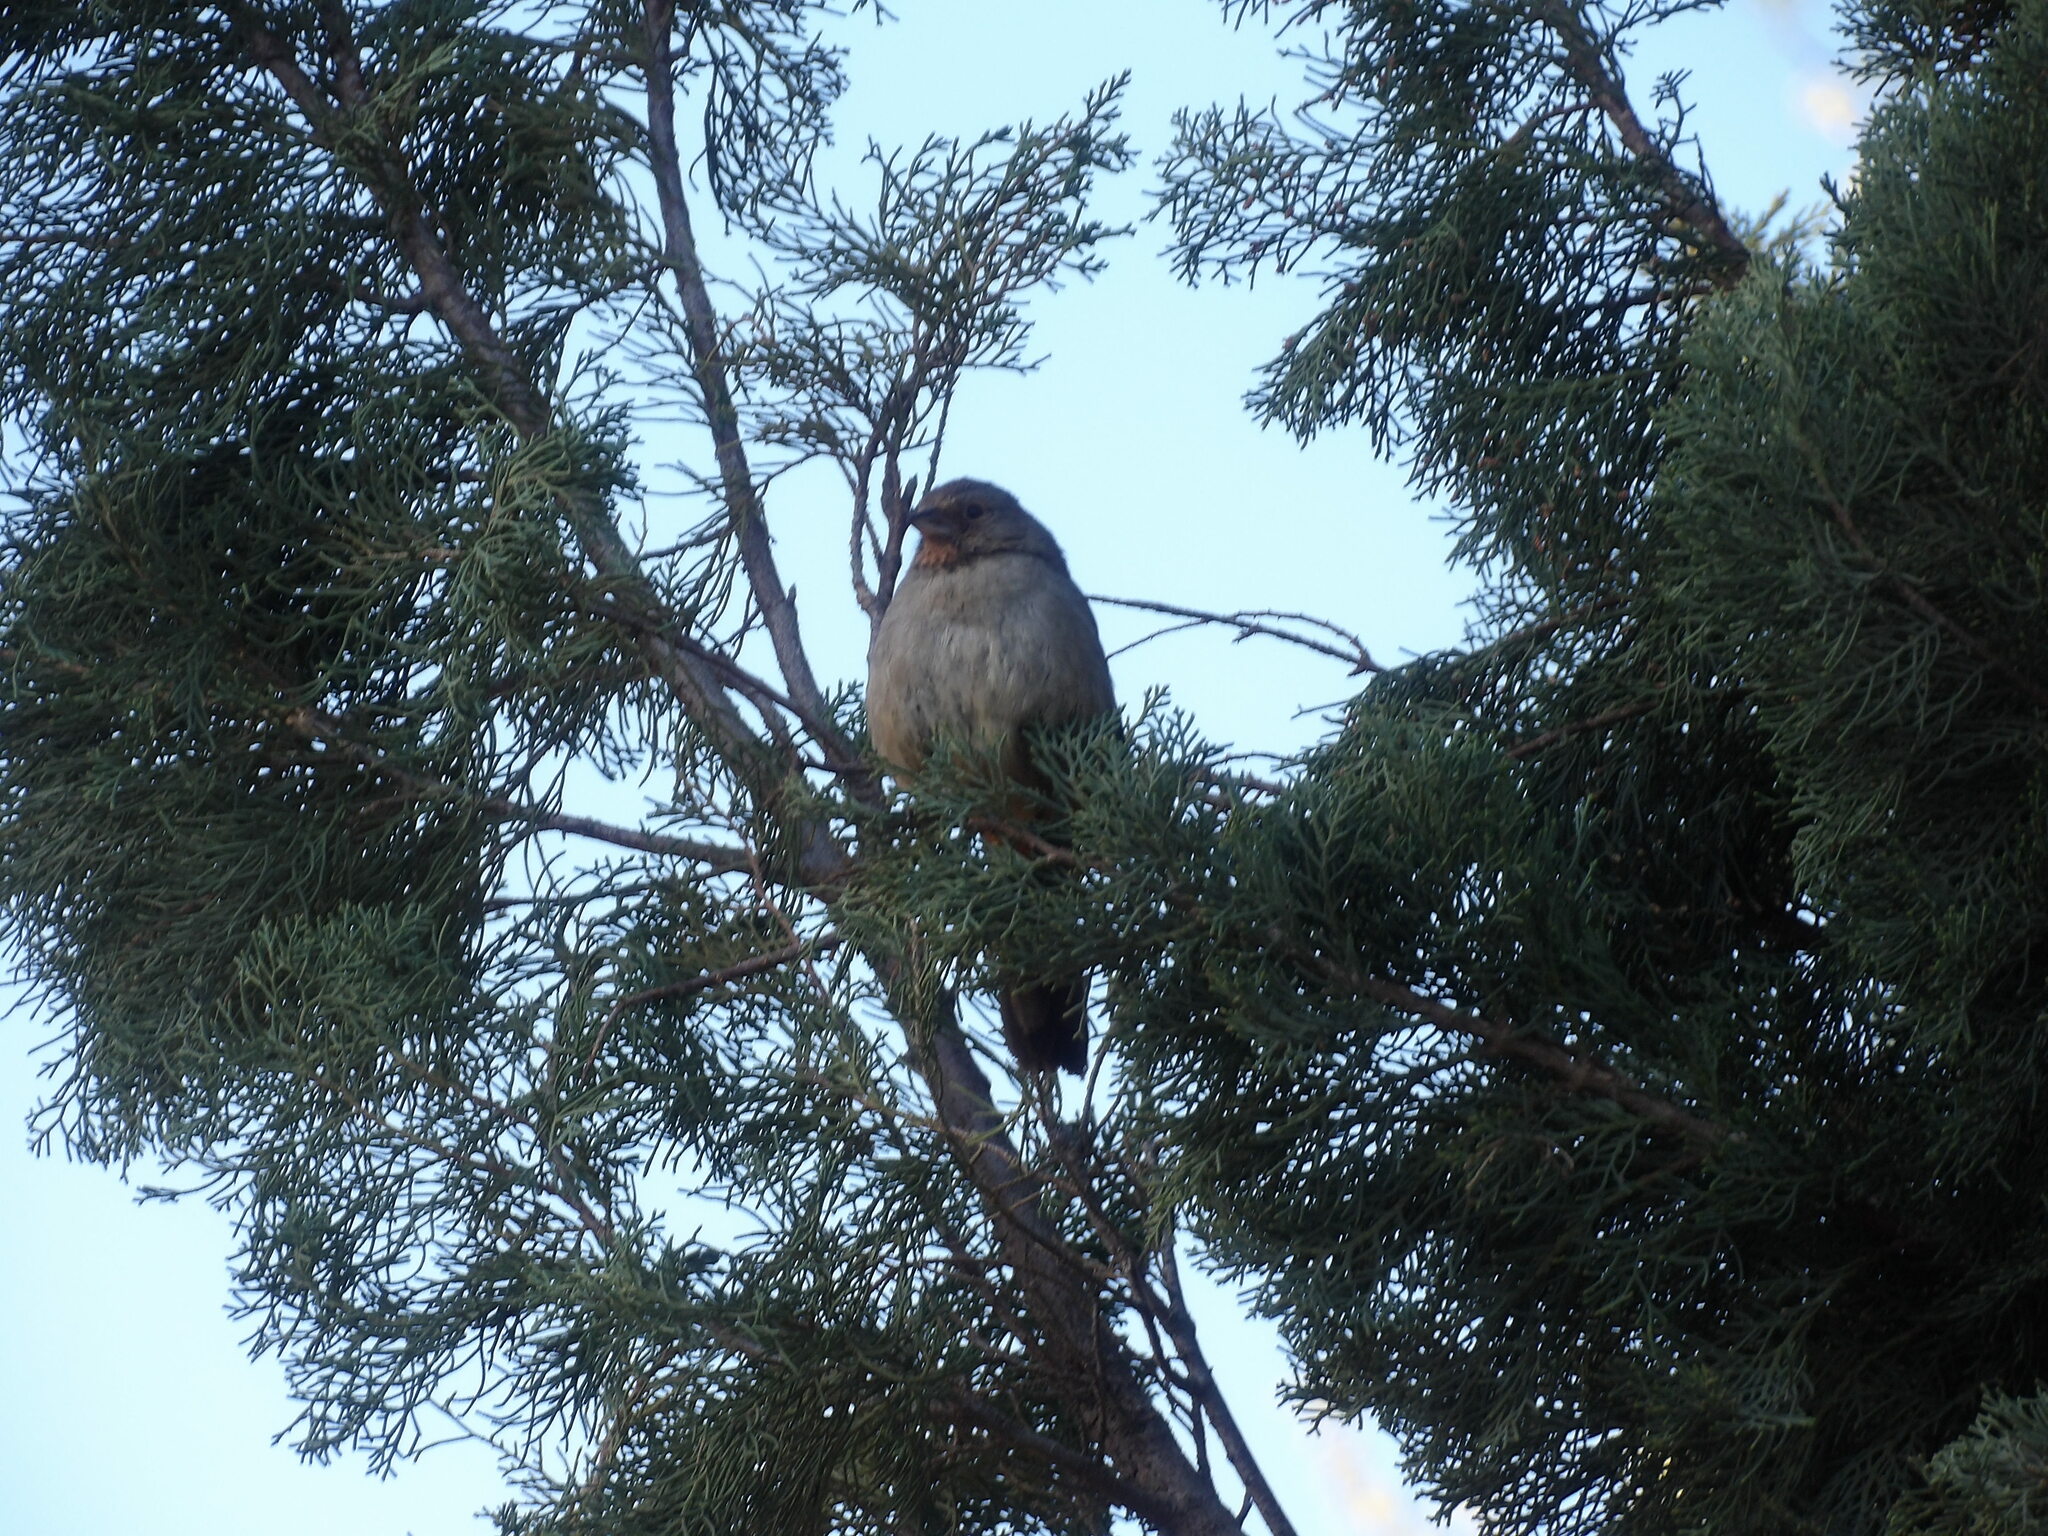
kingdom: Animalia
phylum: Chordata
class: Aves
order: Passeriformes
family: Passerellidae
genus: Melozone
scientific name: Melozone crissalis
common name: California towhee
